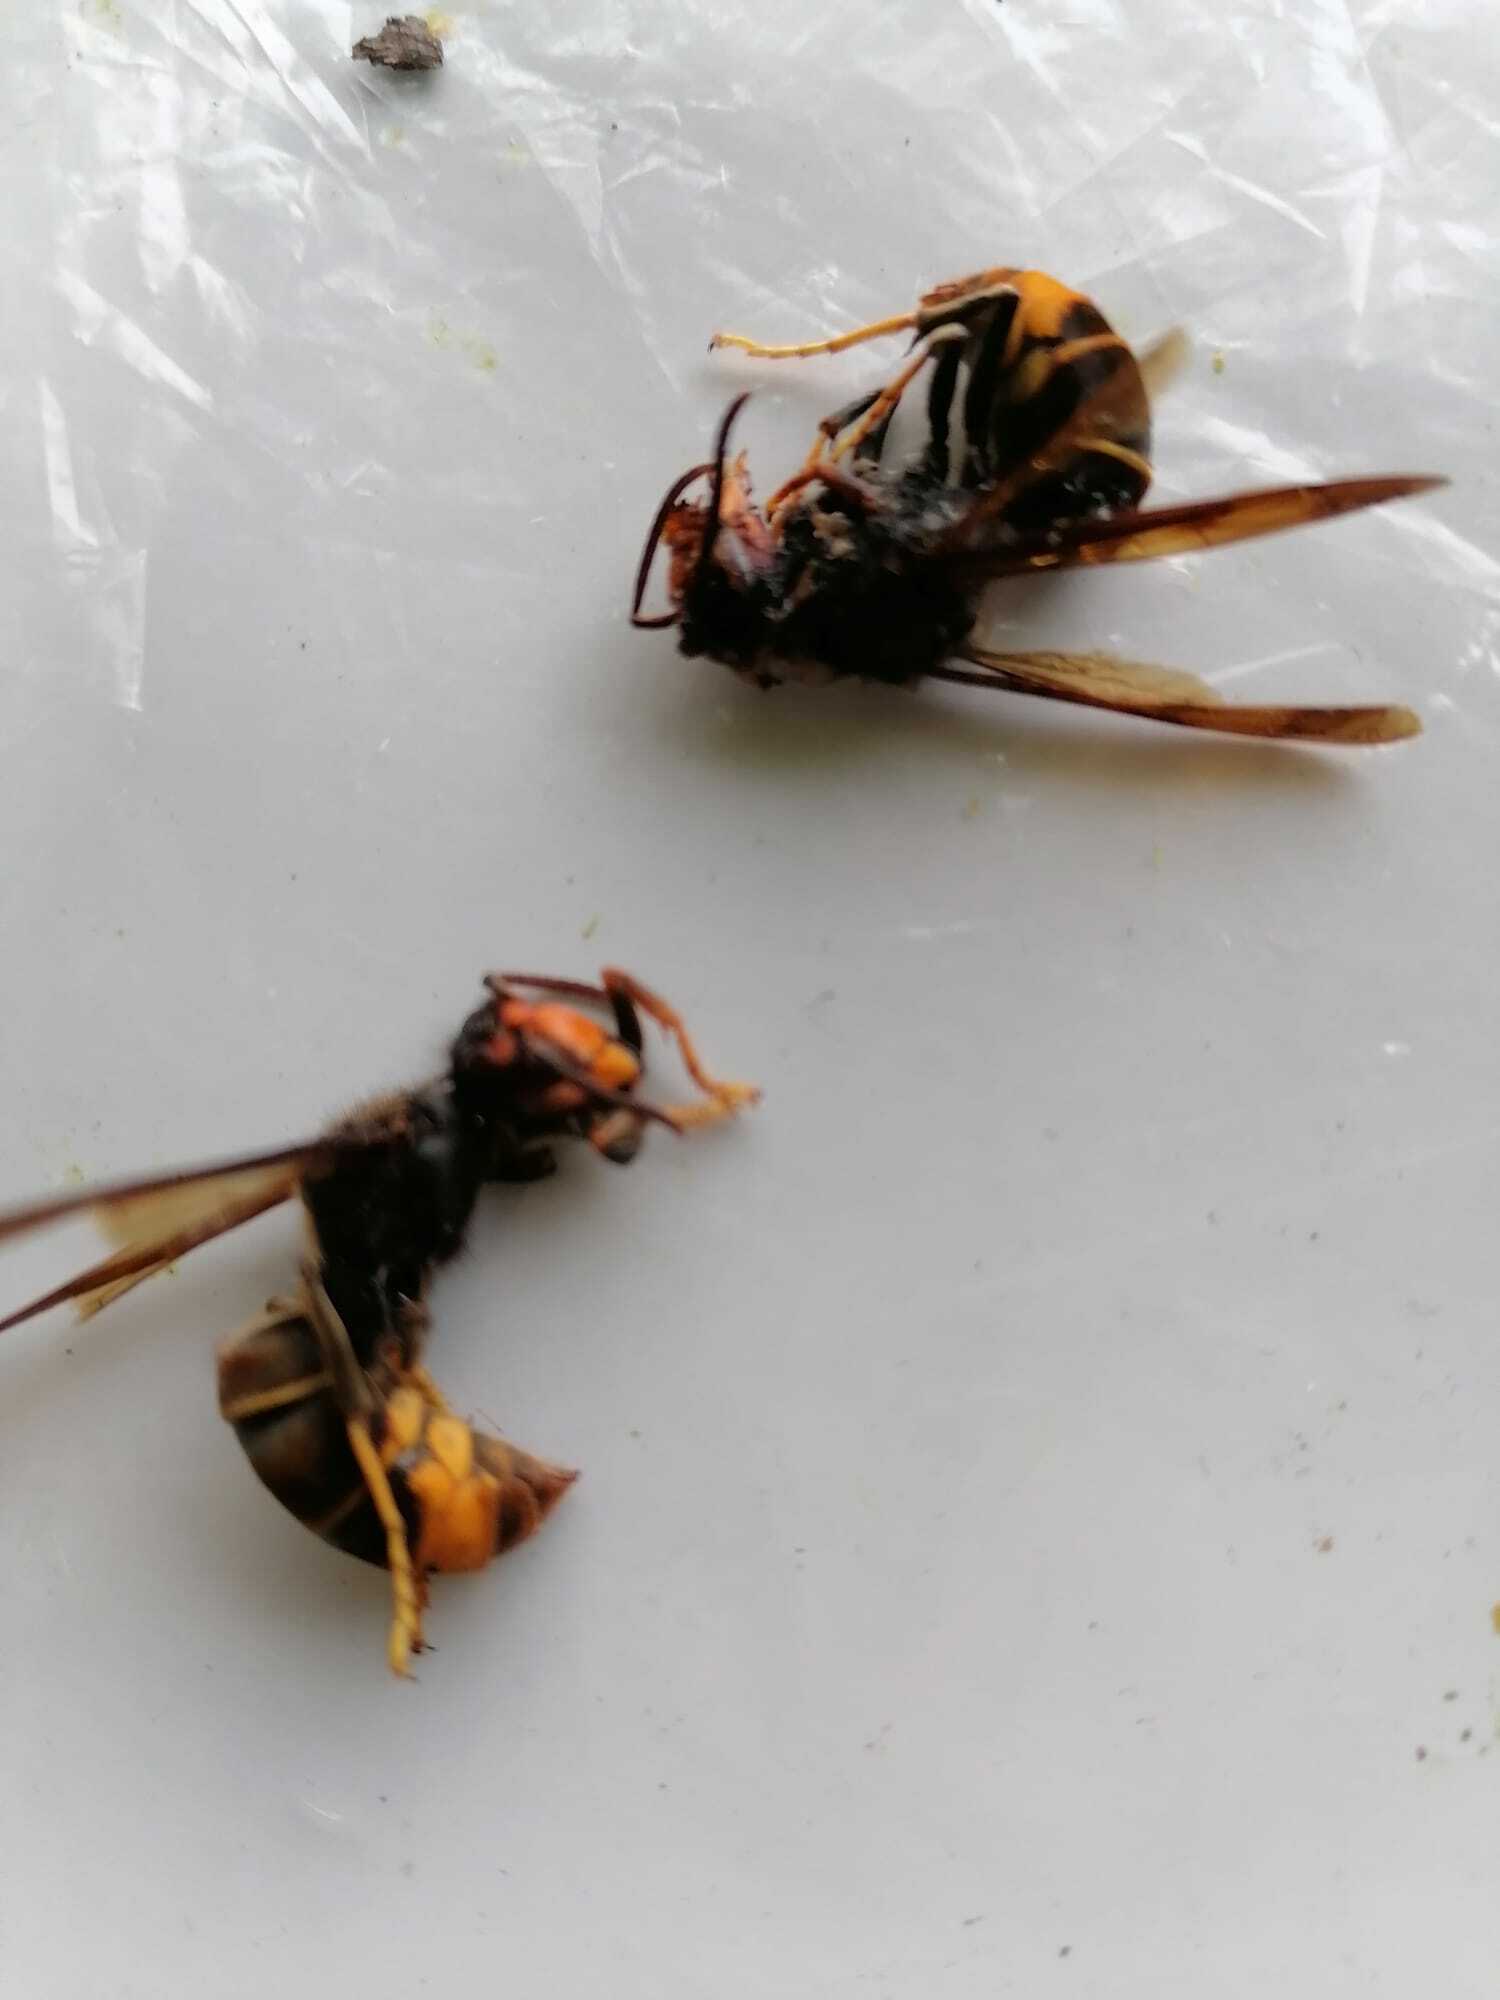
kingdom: Animalia
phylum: Arthropoda
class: Insecta
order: Hymenoptera
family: Vespidae
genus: Vespa
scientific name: Vespa velutina
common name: Asian hornet
